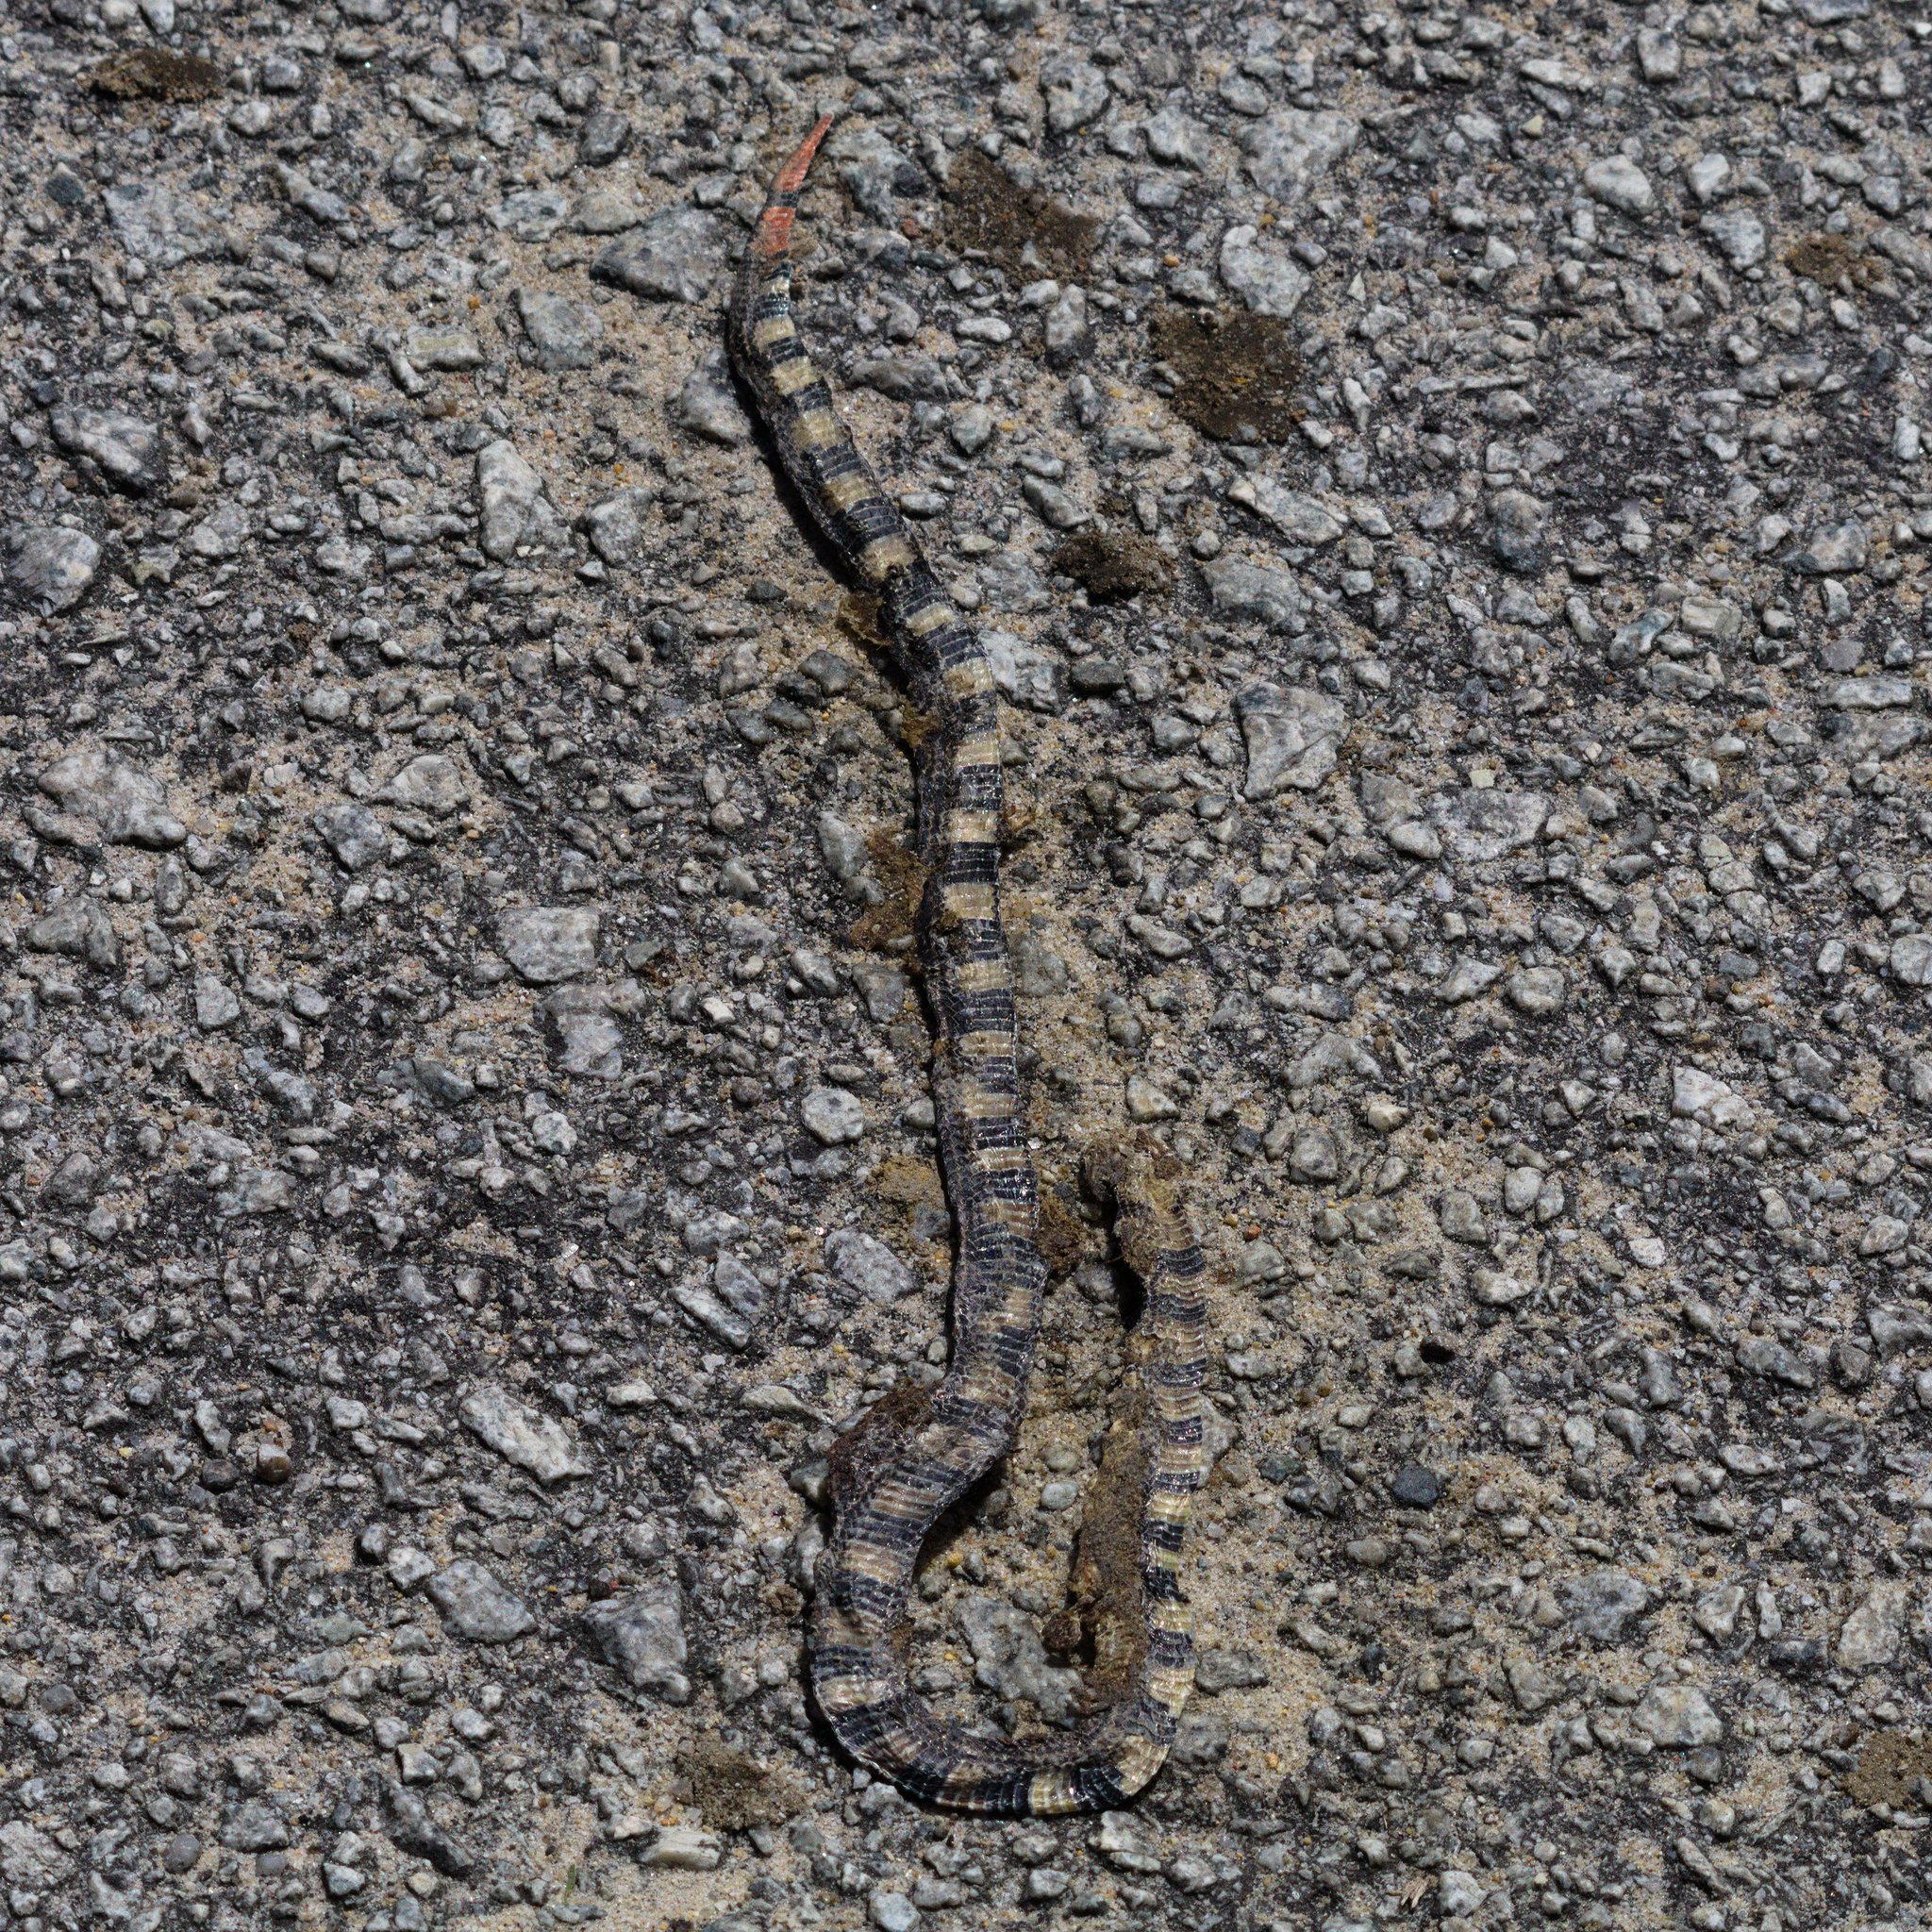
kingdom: Animalia
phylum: Chordata
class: Squamata
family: Elapidae
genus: Calliophis
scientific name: Calliophis intestinalis
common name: Striped coral snake
